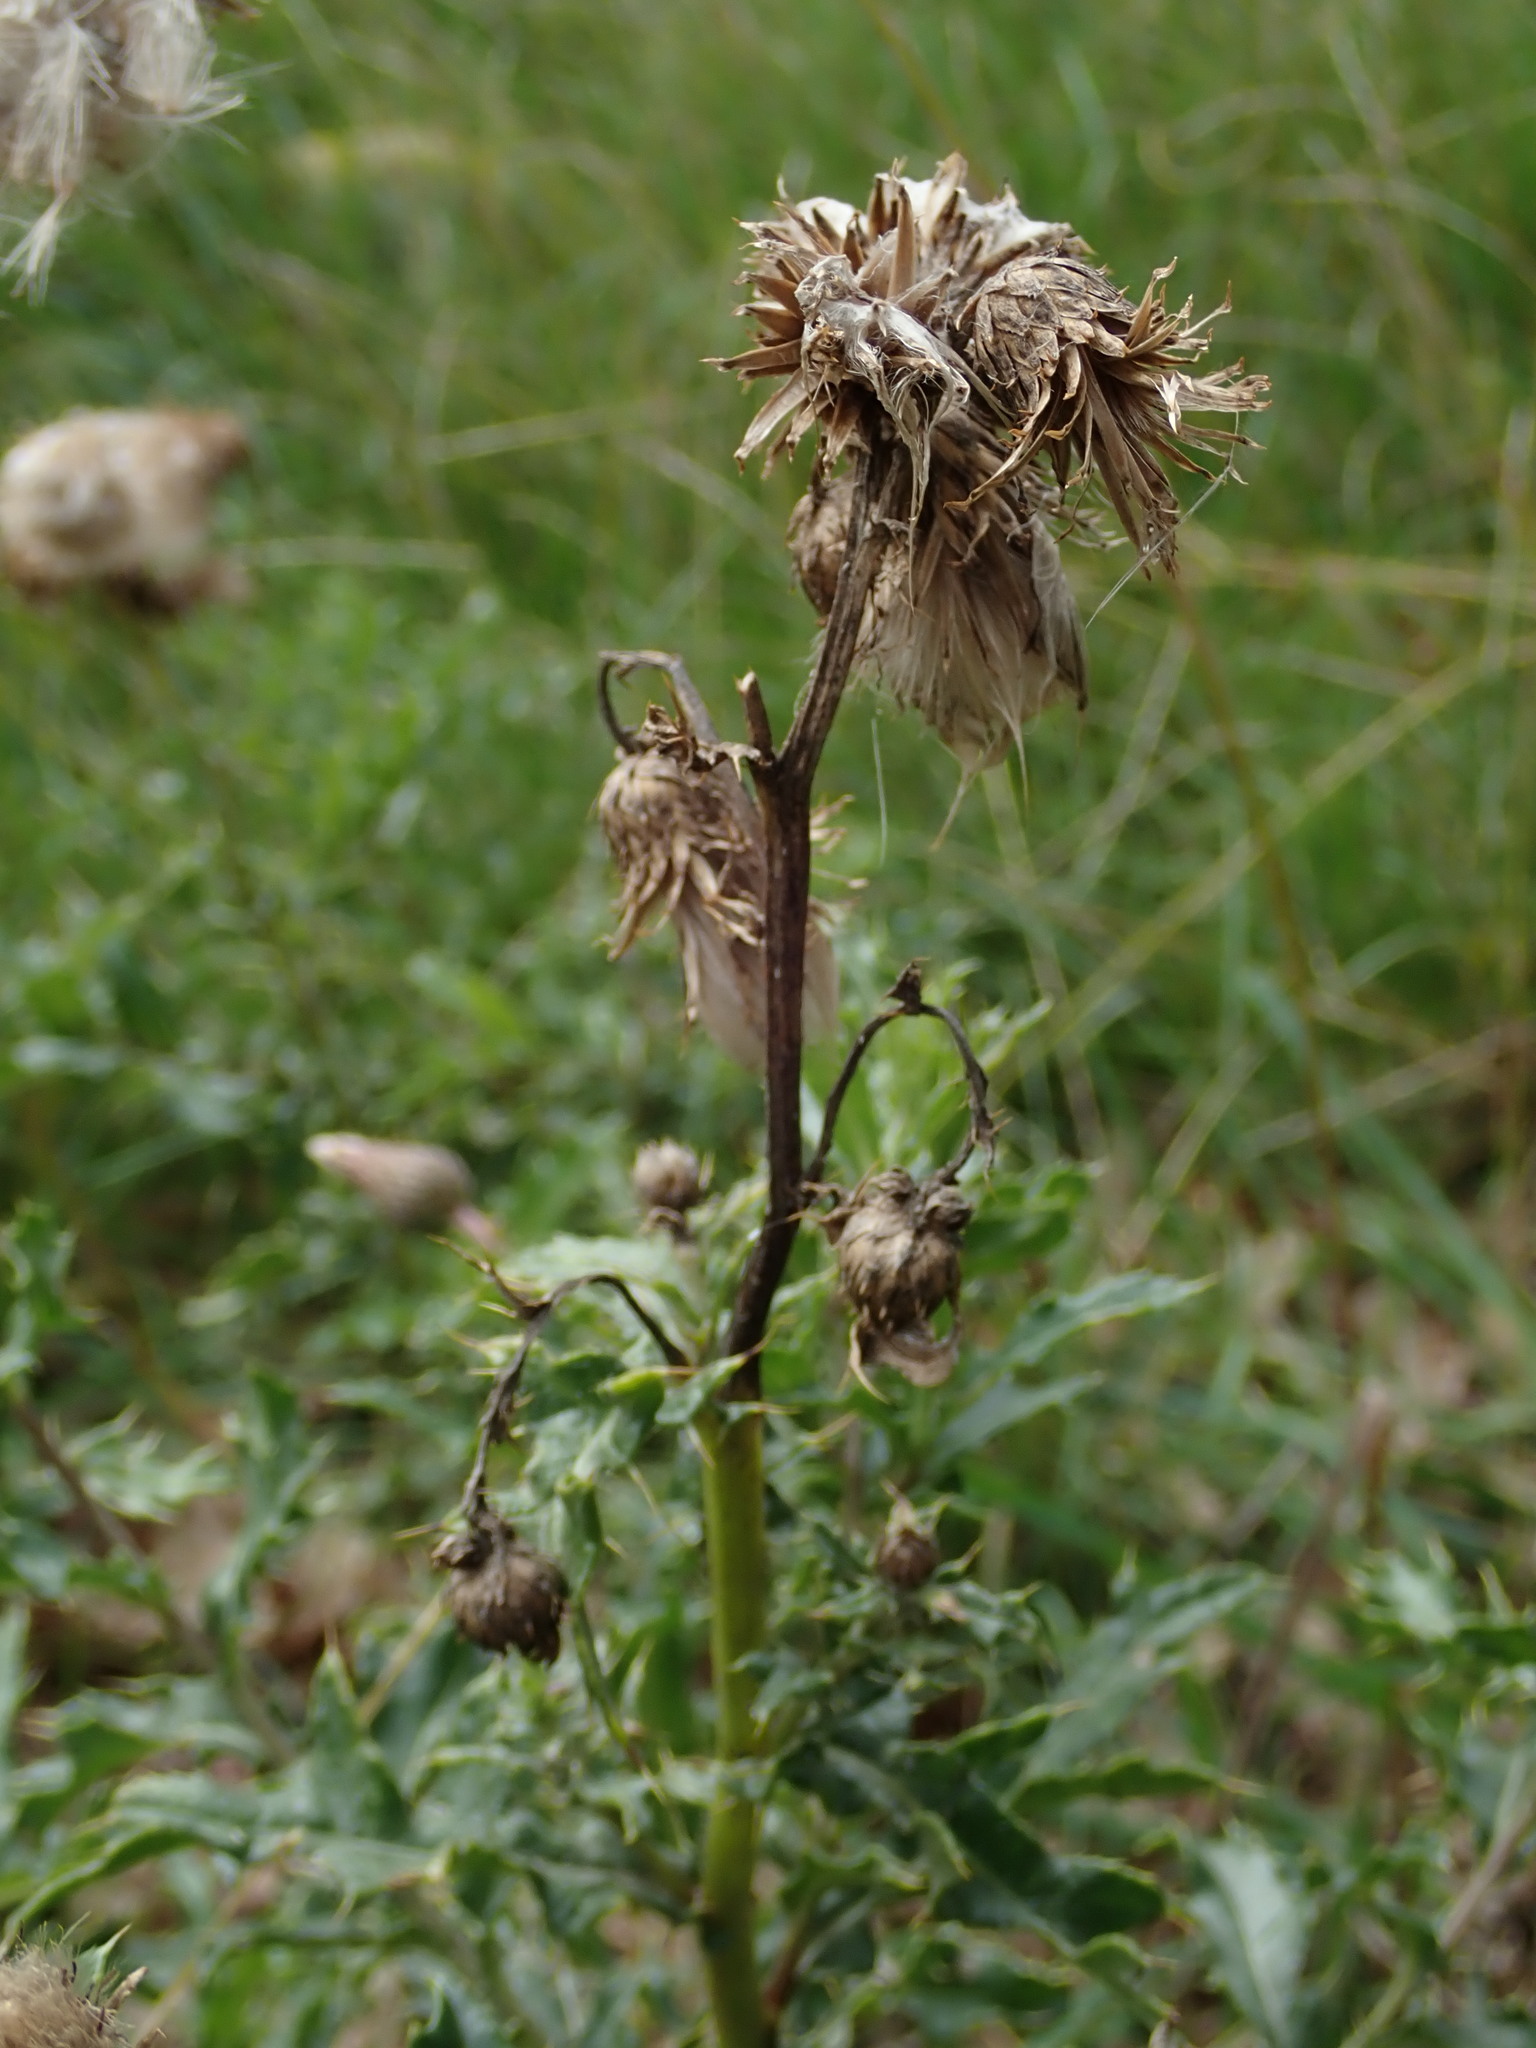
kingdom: Plantae
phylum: Tracheophyta
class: Magnoliopsida
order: Asterales
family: Asteraceae
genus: Cirsium
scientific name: Cirsium arvense
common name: Creeping thistle
